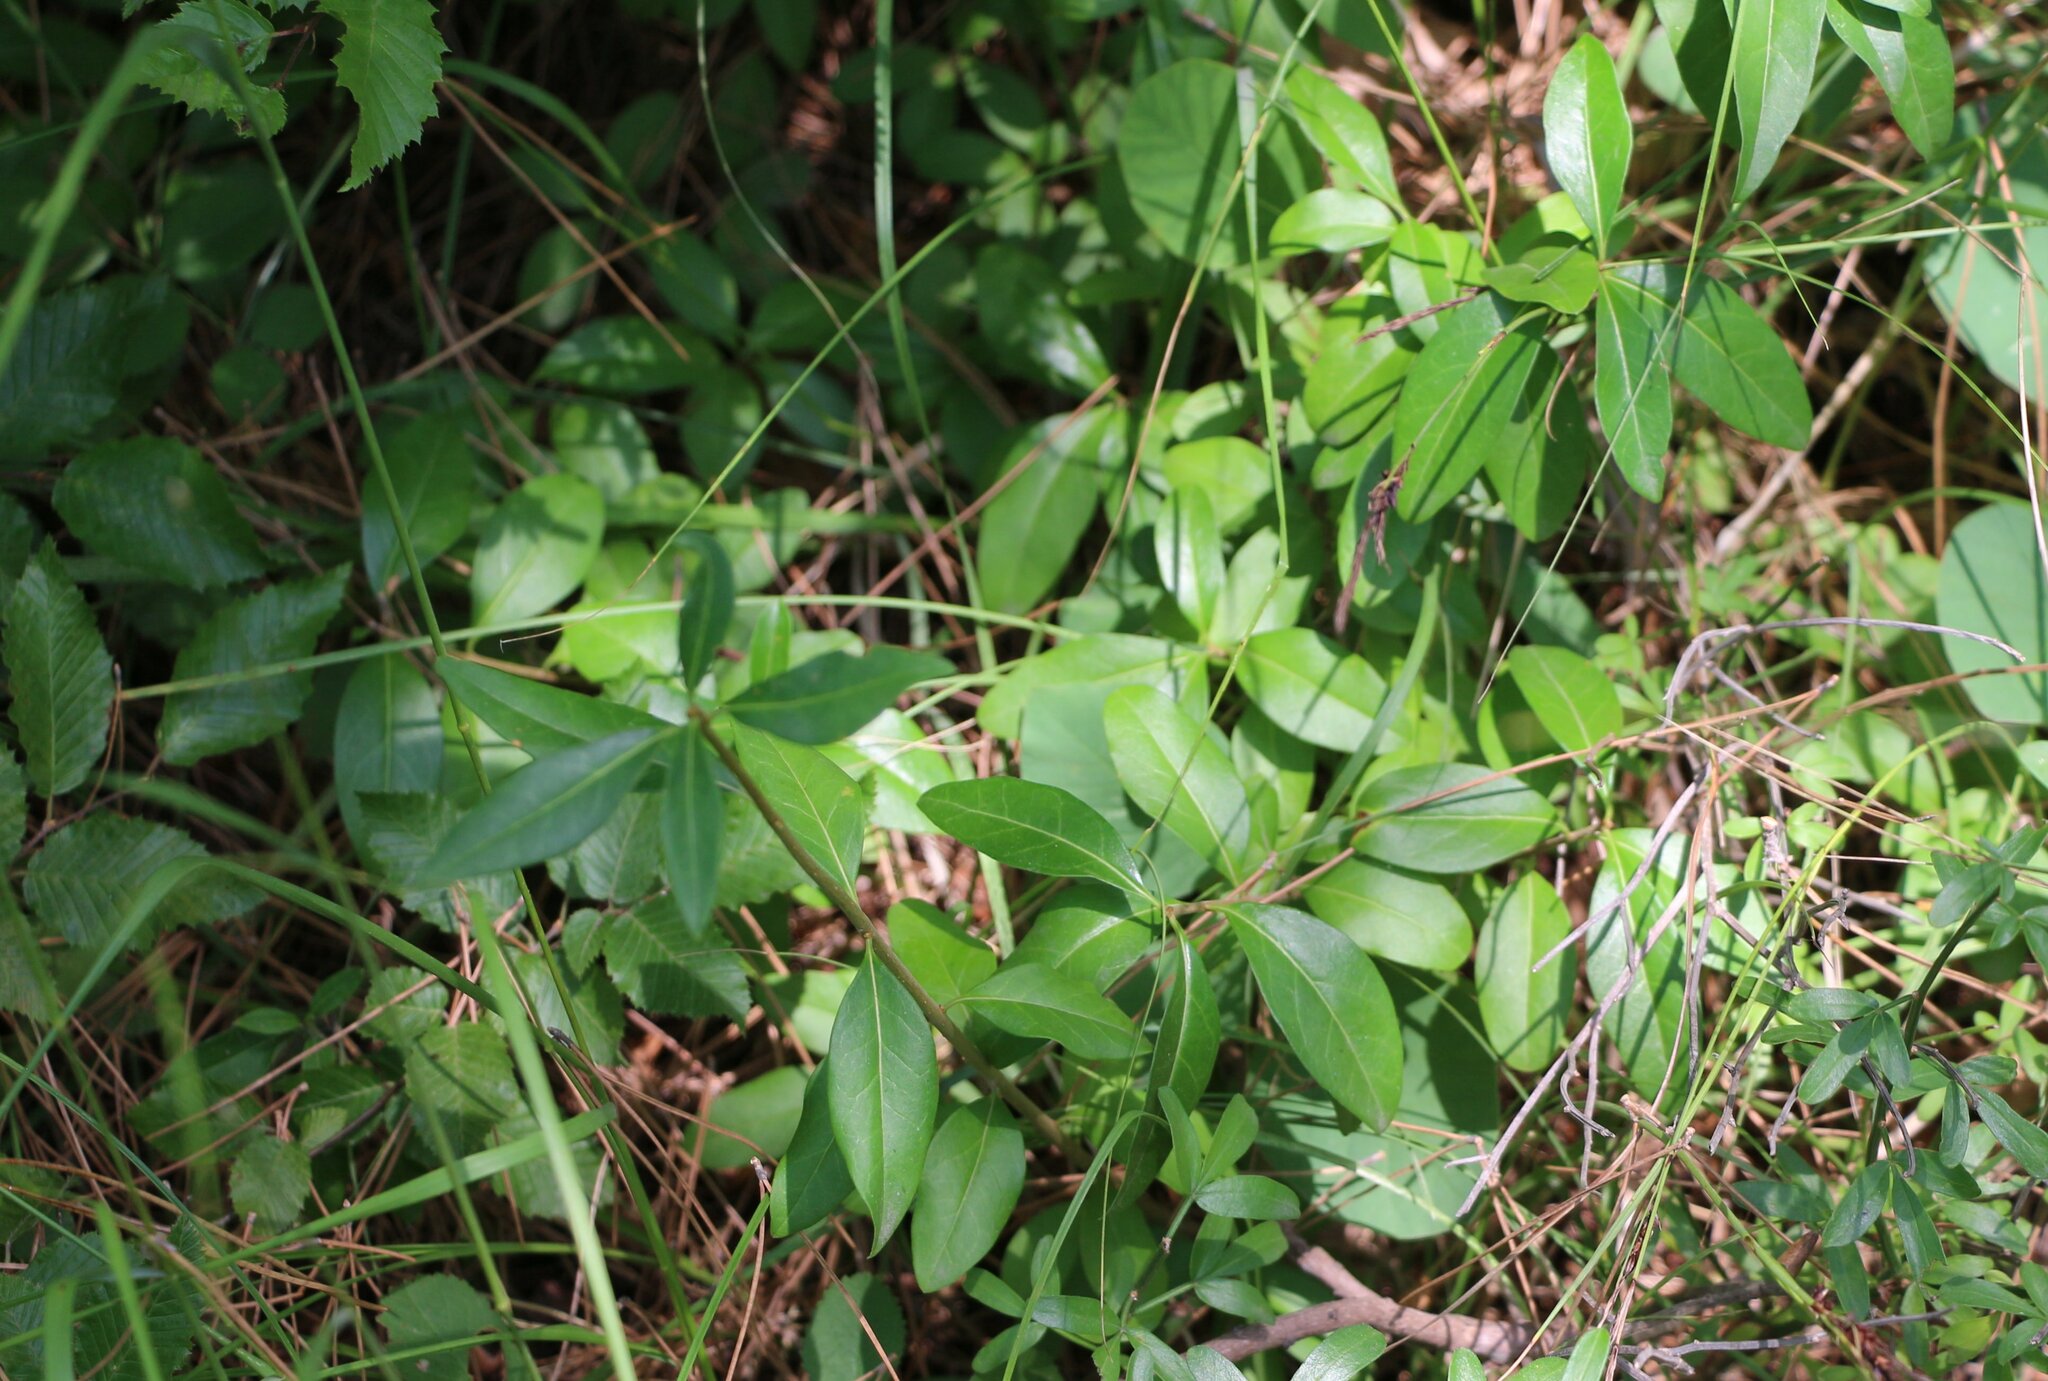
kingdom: Plantae
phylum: Tracheophyta
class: Magnoliopsida
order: Lamiales
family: Oleaceae
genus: Ligustrum
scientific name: Ligustrum vulgare
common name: Wild privet
